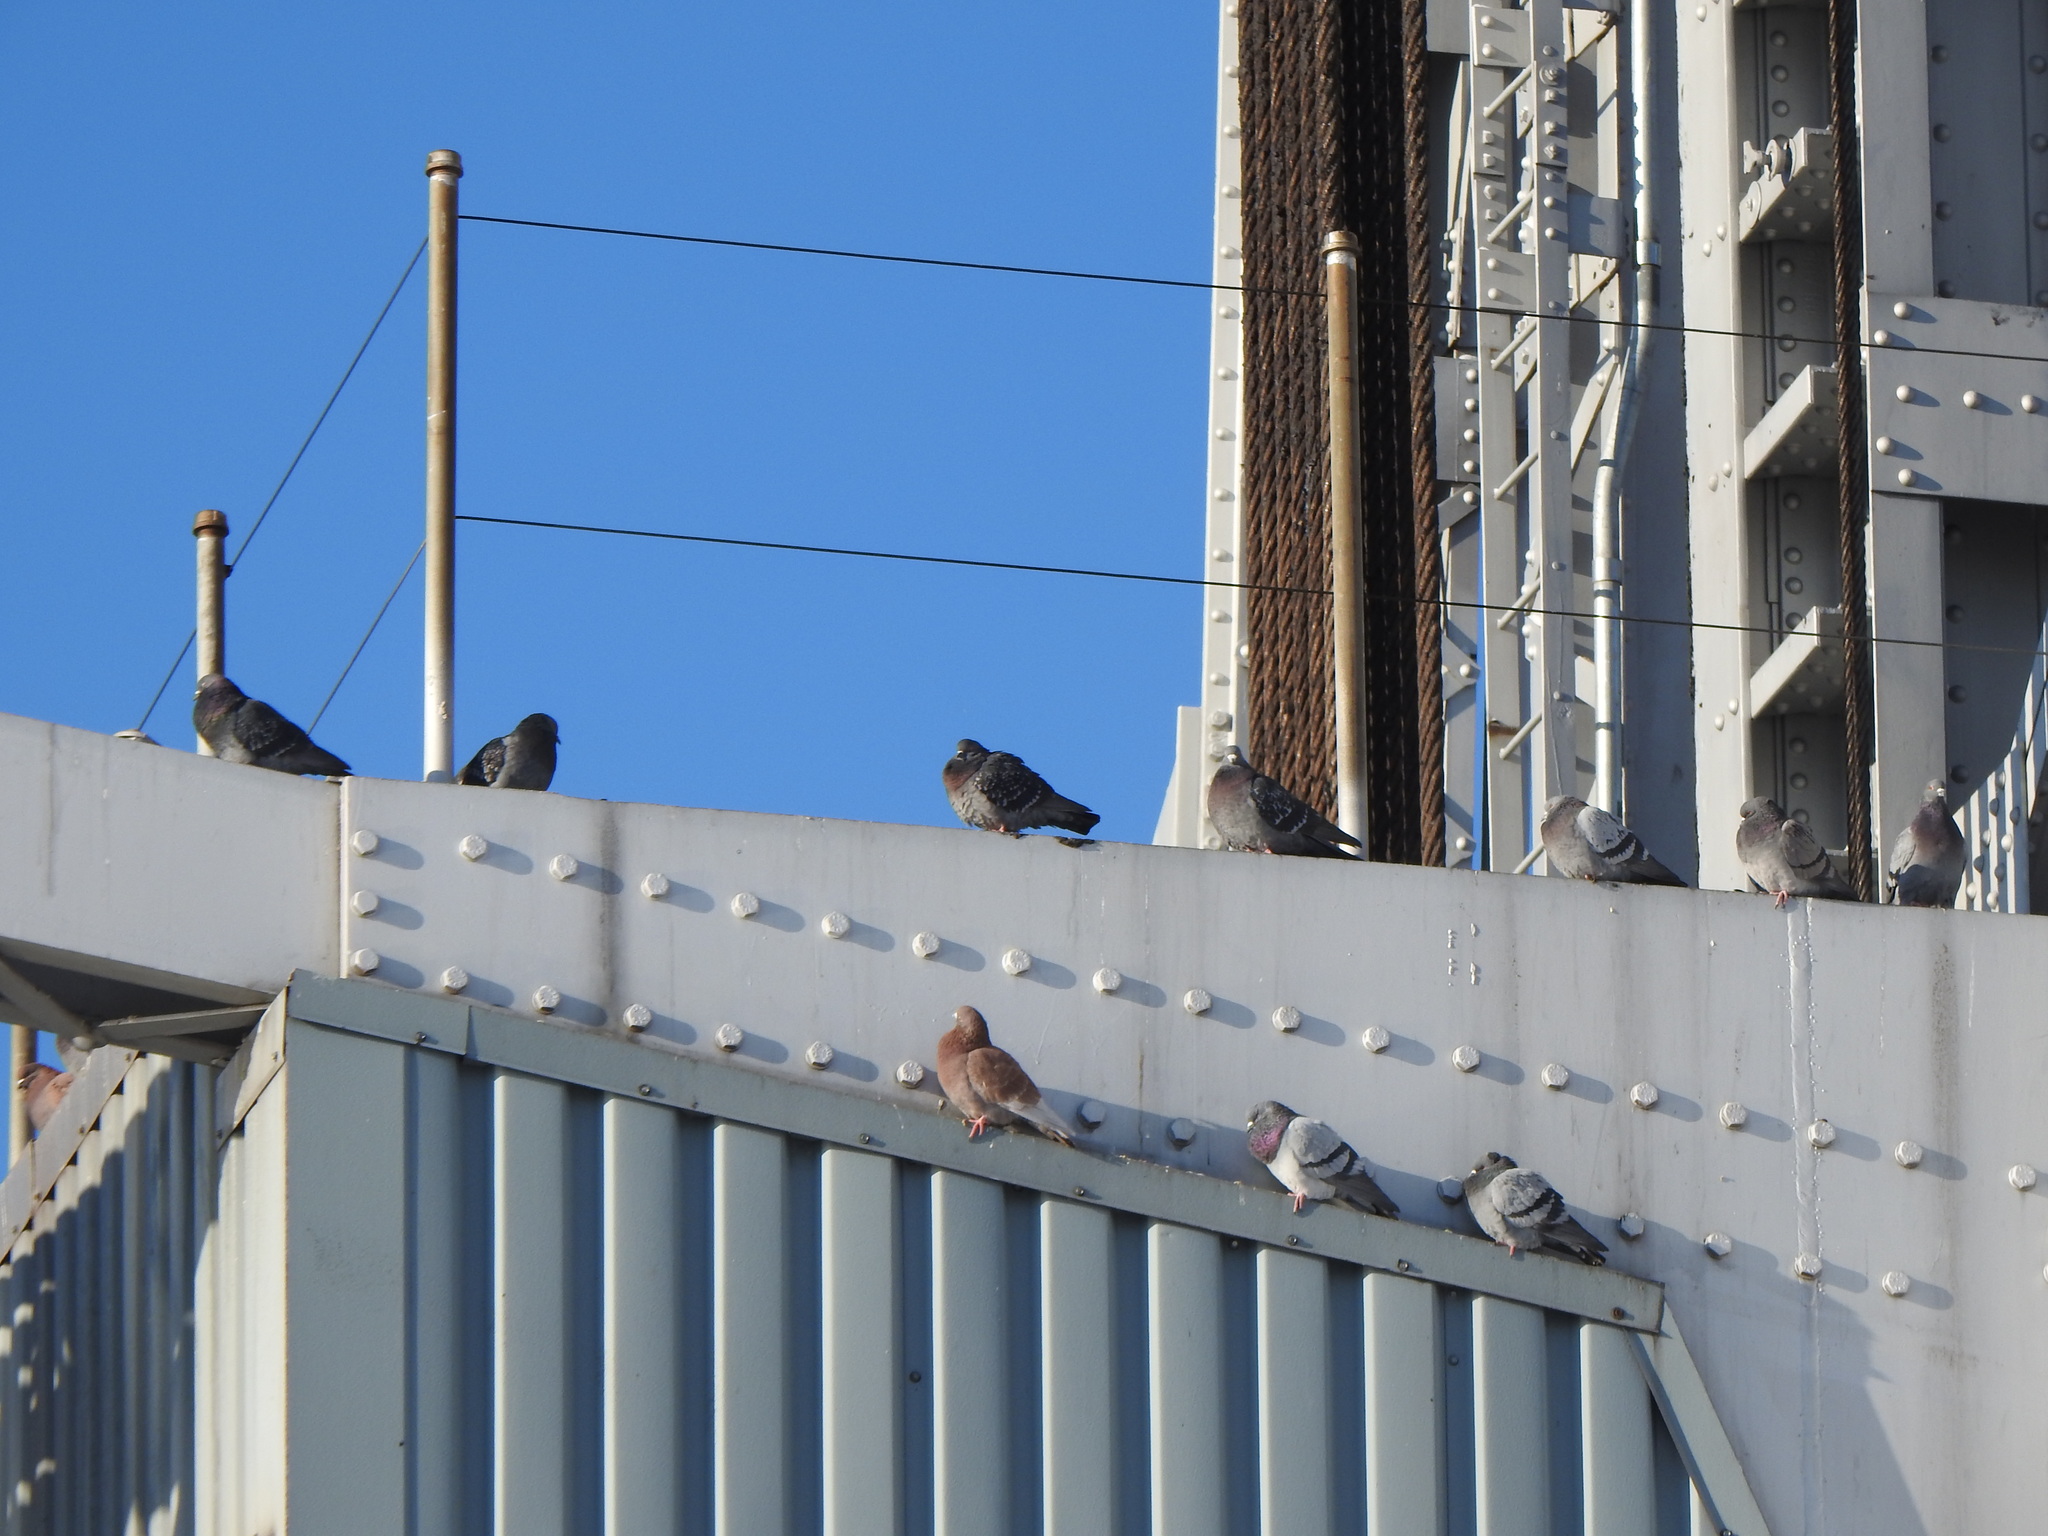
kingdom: Animalia
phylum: Chordata
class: Aves
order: Columbiformes
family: Columbidae
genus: Columba
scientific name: Columba livia
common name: Rock pigeon
